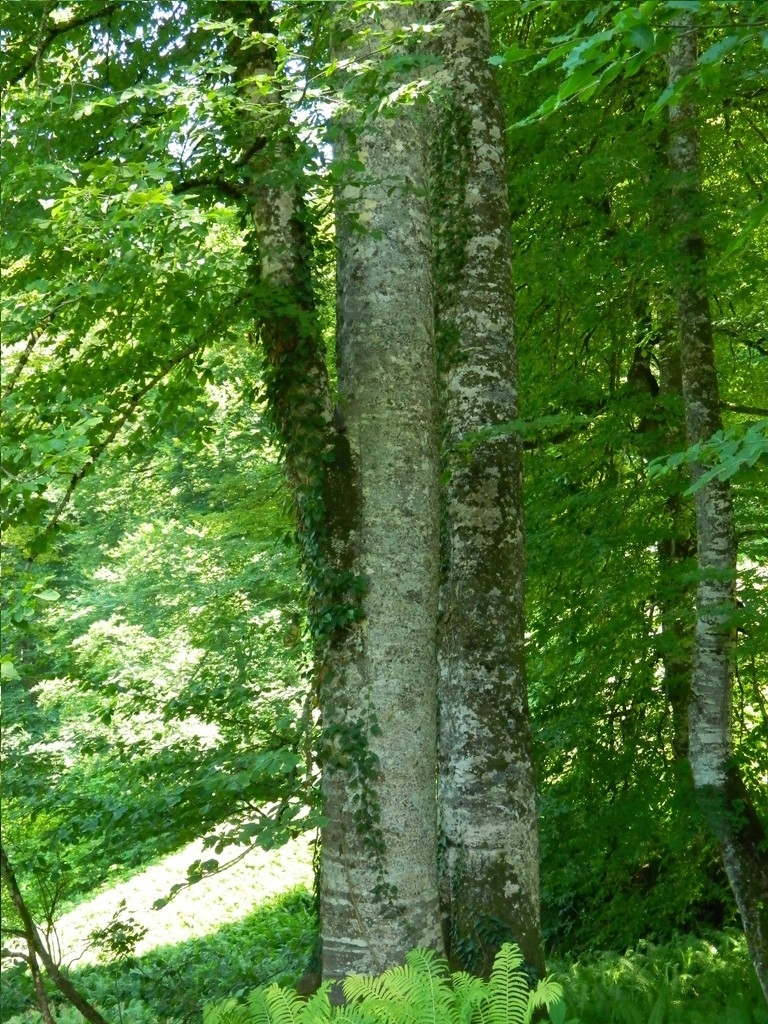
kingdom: Plantae
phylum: Tracheophyta
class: Magnoliopsida
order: Fagales
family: Fagaceae
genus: Fagus
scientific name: Fagus orientalis
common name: Oriental beech
